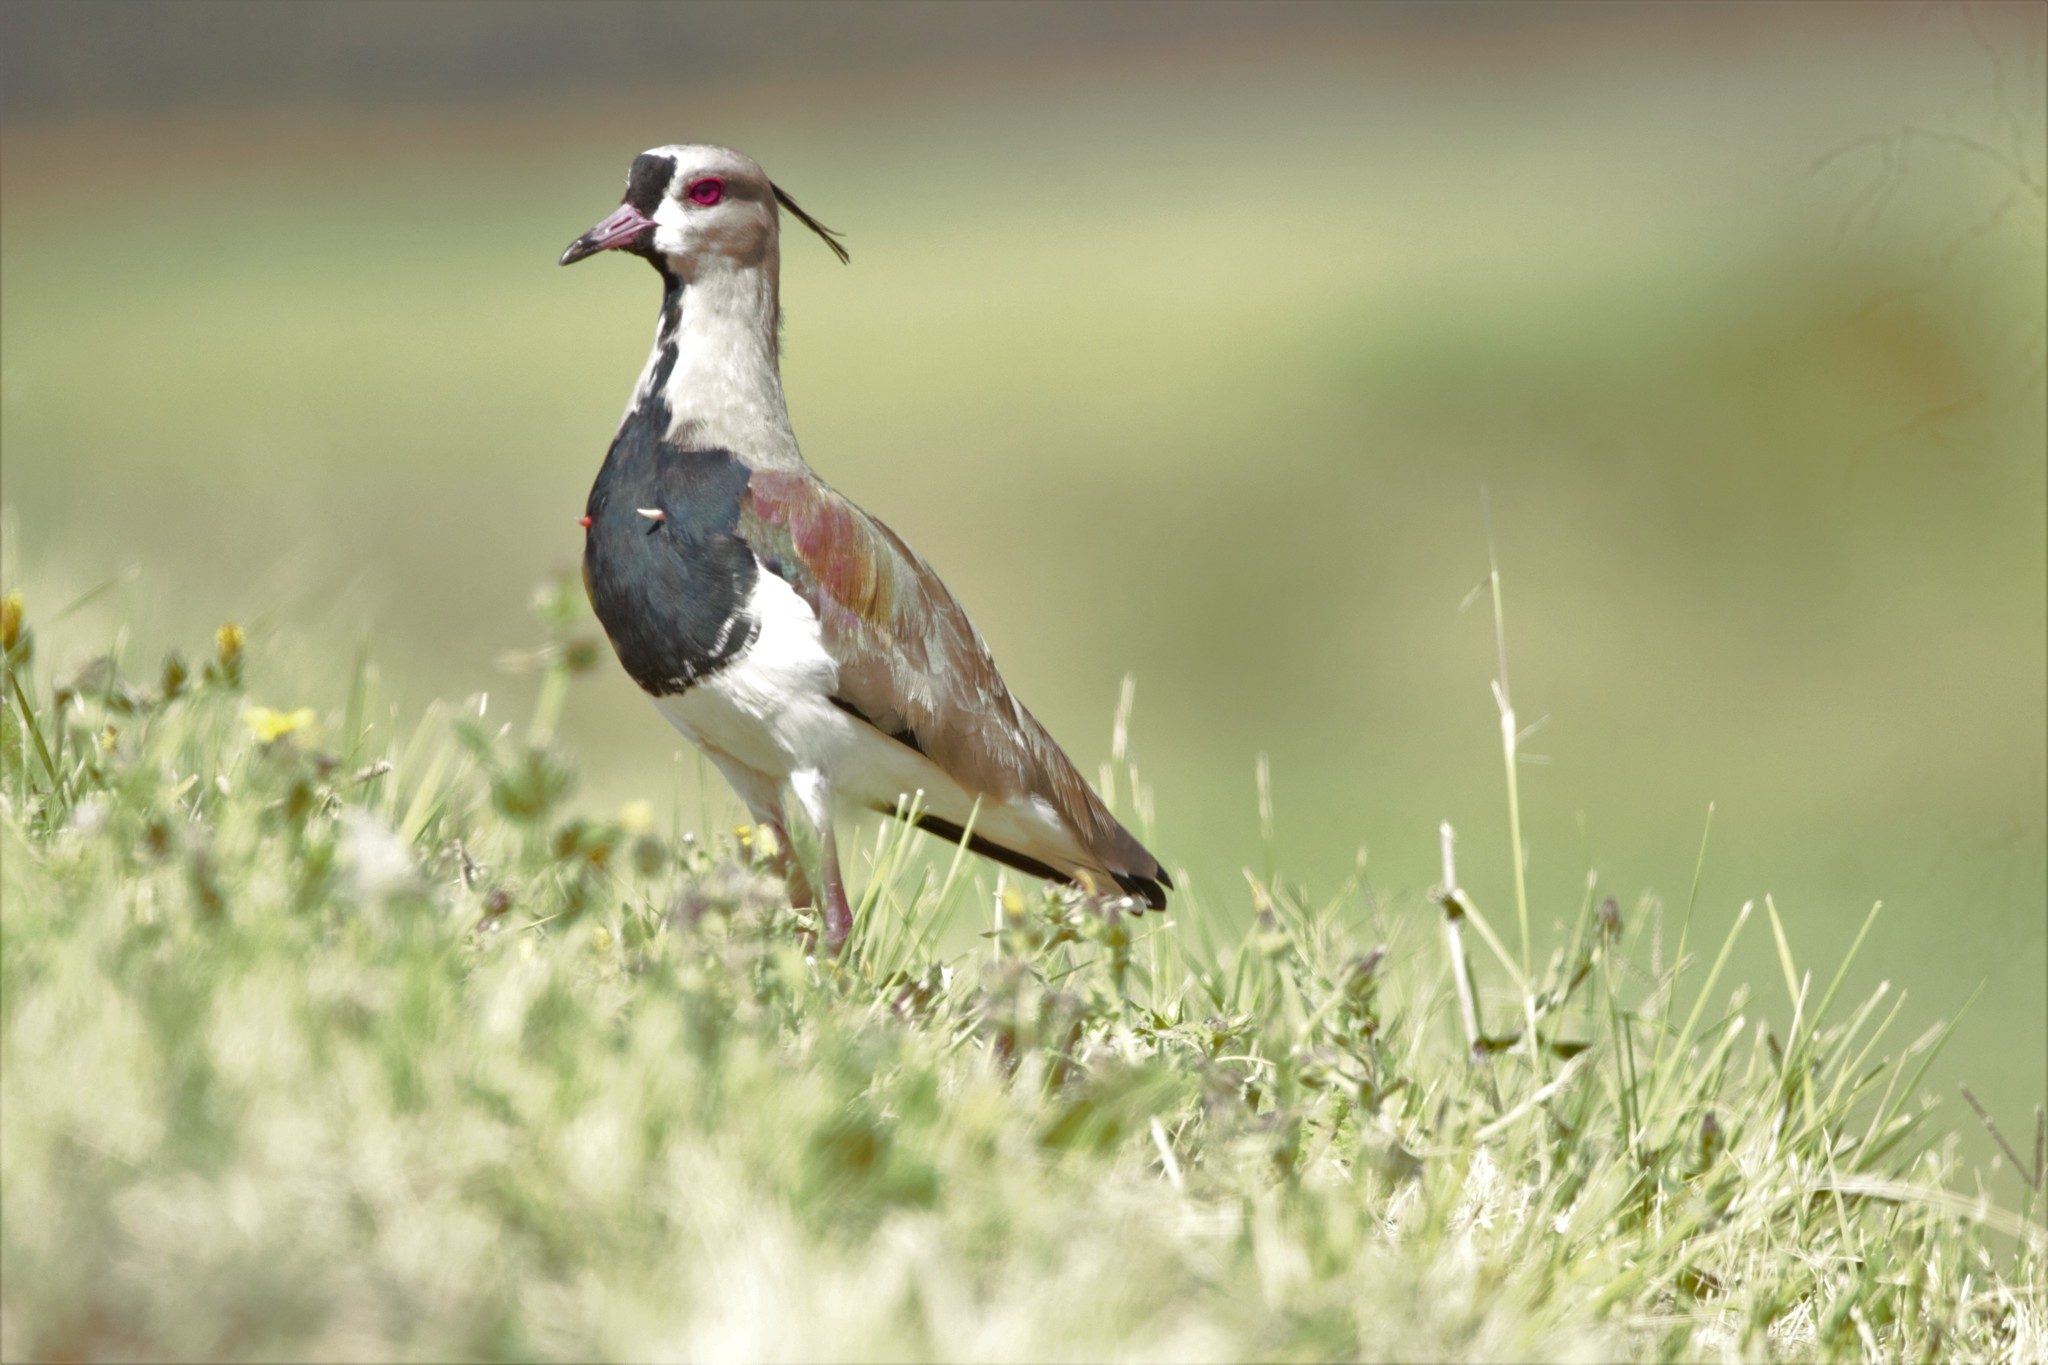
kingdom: Animalia
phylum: Chordata
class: Aves
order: Charadriiformes
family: Charadriidae
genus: Vanellus
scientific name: Vanellus chilensis
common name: Southern lapwing
